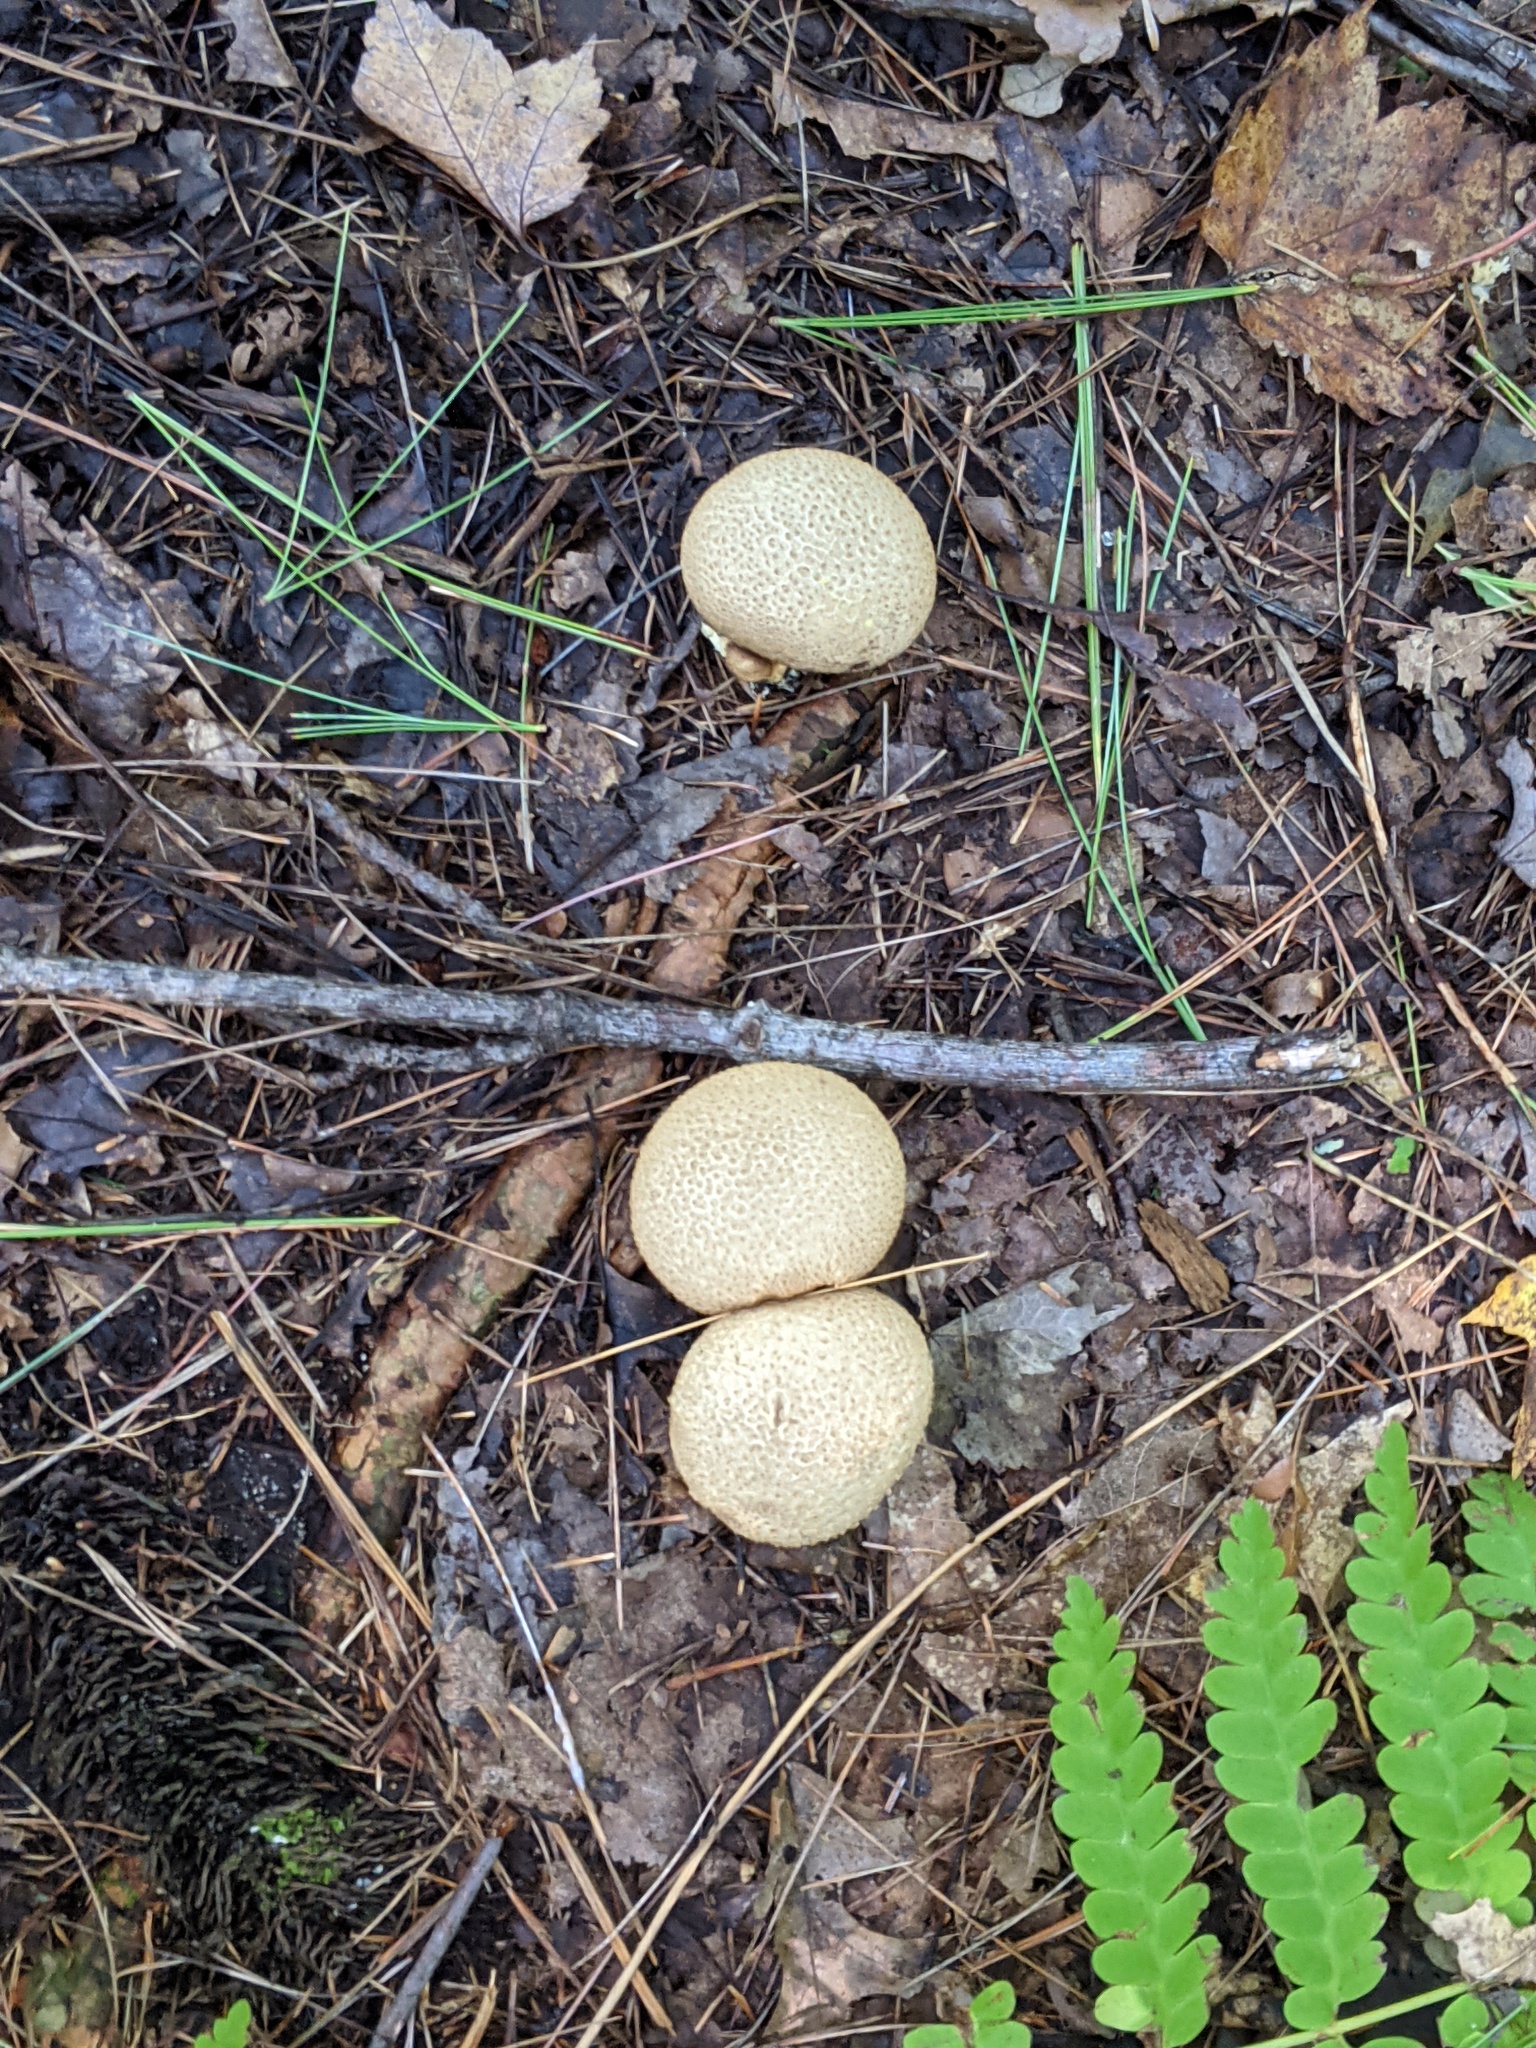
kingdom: Fungi
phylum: Basidiomycota
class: Agaricomycetes
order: Boletales
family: Sclerodermataceae
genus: Scleroderma
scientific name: Scleroderma citrinum
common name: Common earthball
